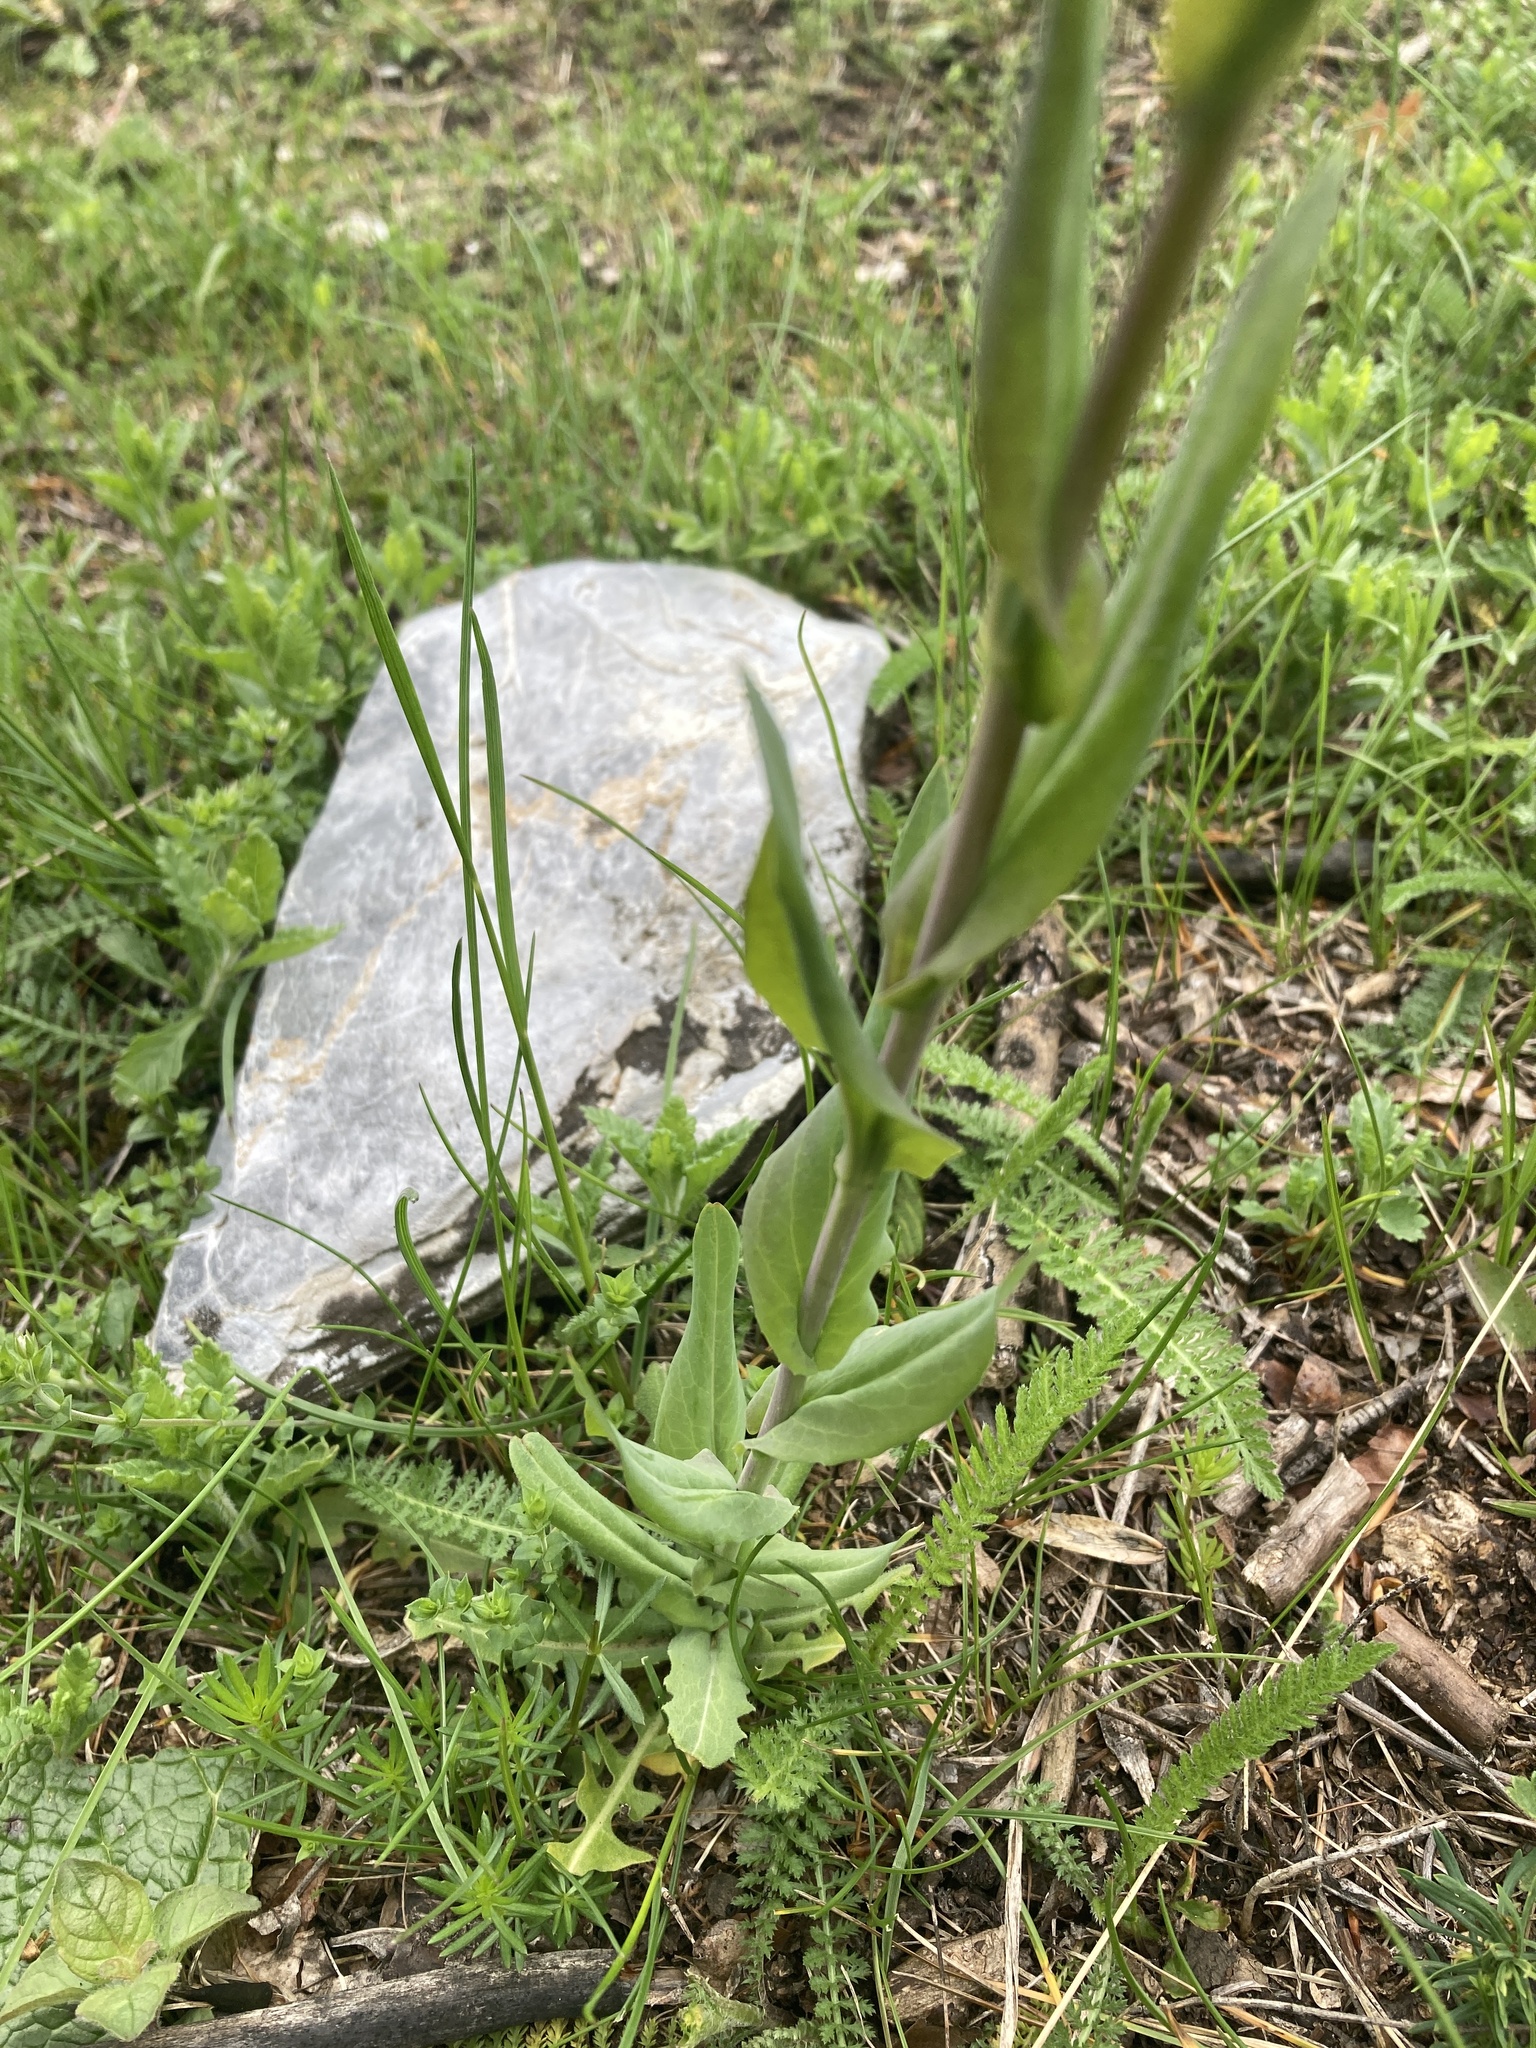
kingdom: Plantae
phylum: Tracheophyta
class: Magnoliopsida
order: Brassicales
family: Brassicaceae
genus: Turritis
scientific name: Turritis glabra
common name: Tower rockcress
